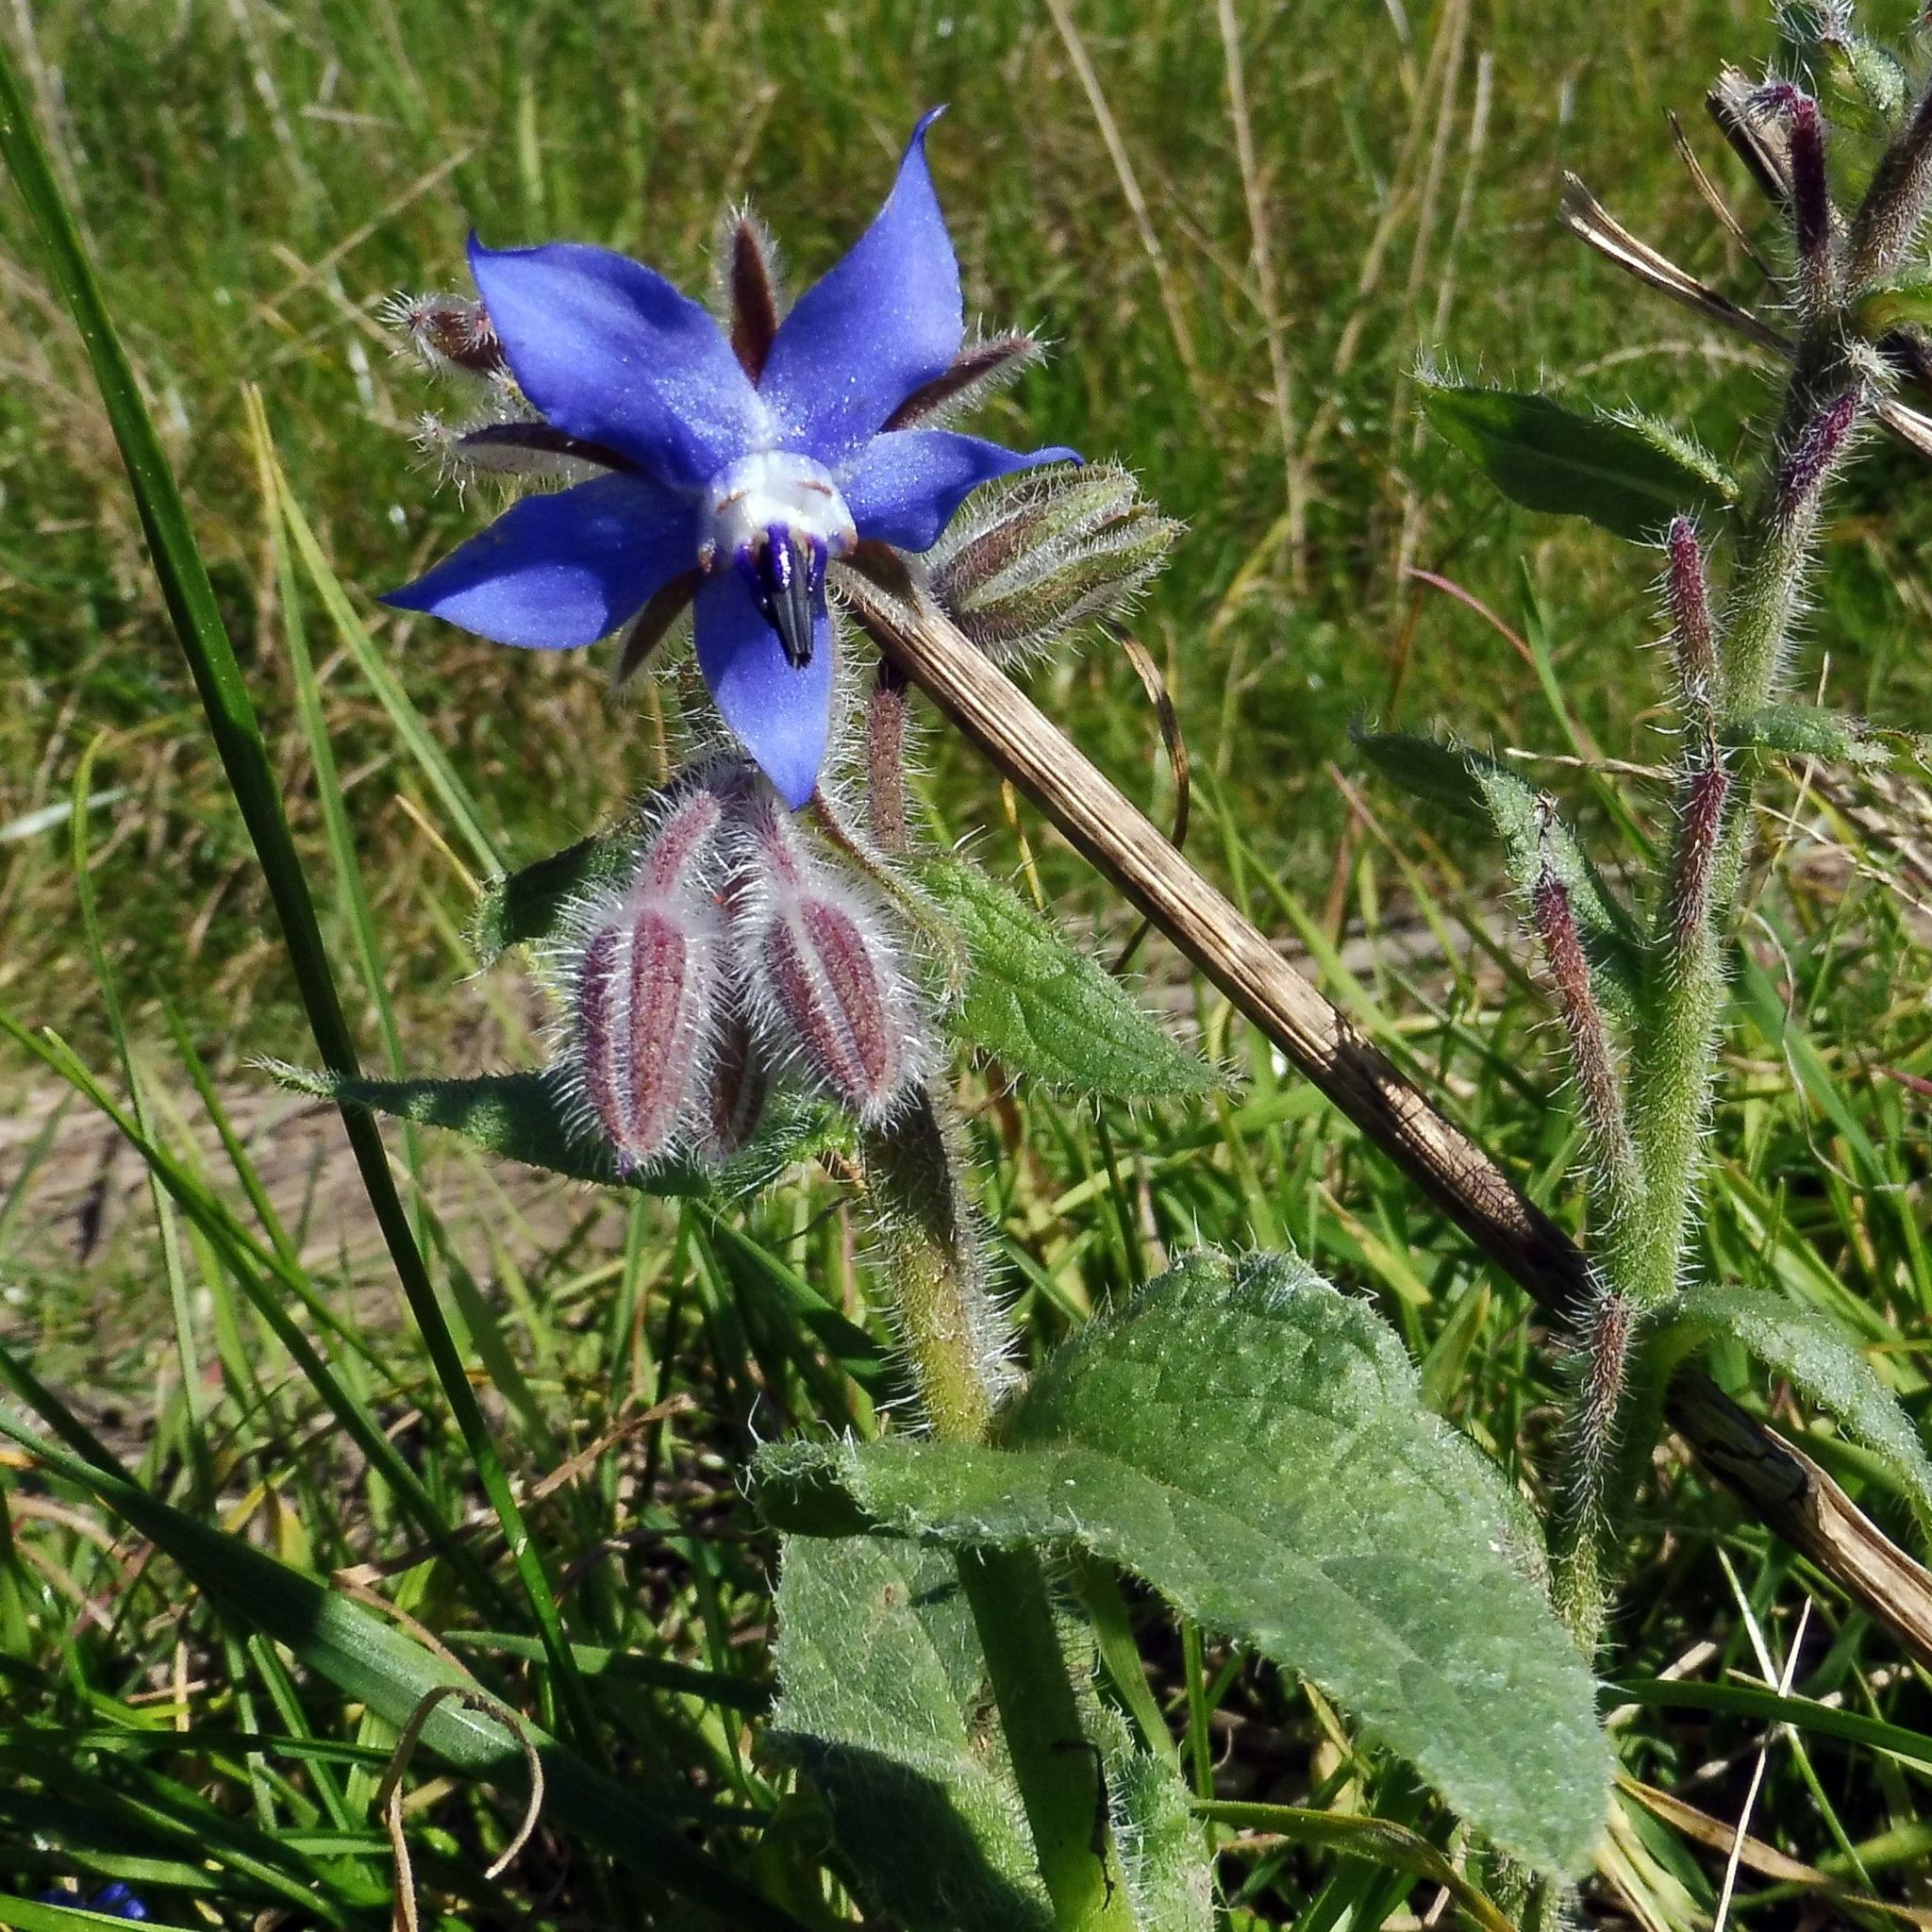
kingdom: Plantae
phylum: Tracheophyta
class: Magnoliopsida
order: Boraginales
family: Boraginaceae
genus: Borago
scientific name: Borago officinalis
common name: Borage
